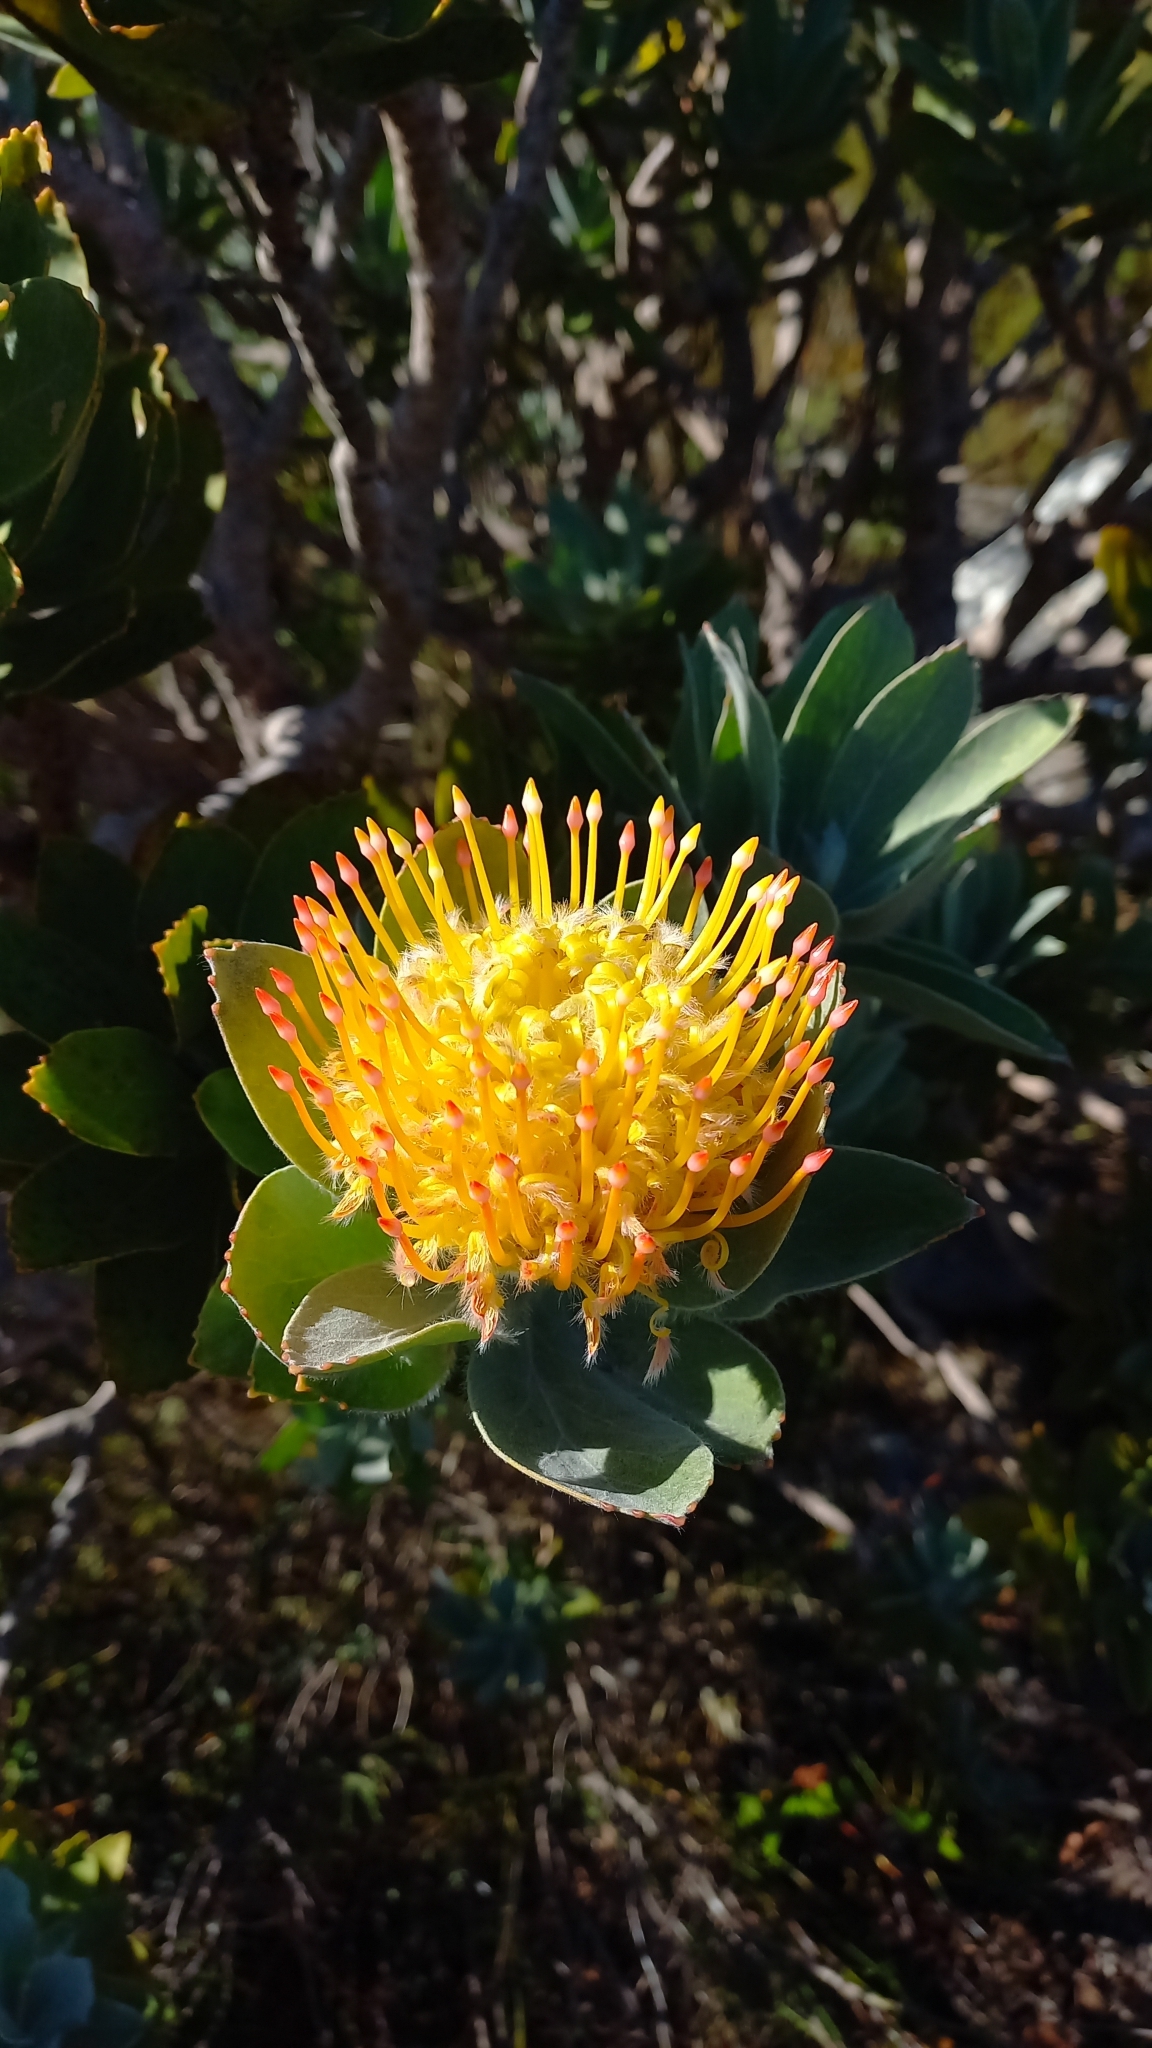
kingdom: Plantae
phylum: Tracheophyta
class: Magnoliopsida
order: Proteales
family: Proteaceae
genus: Leucospermum
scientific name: Leucospermum conocarpodendron
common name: Tree pincushion
